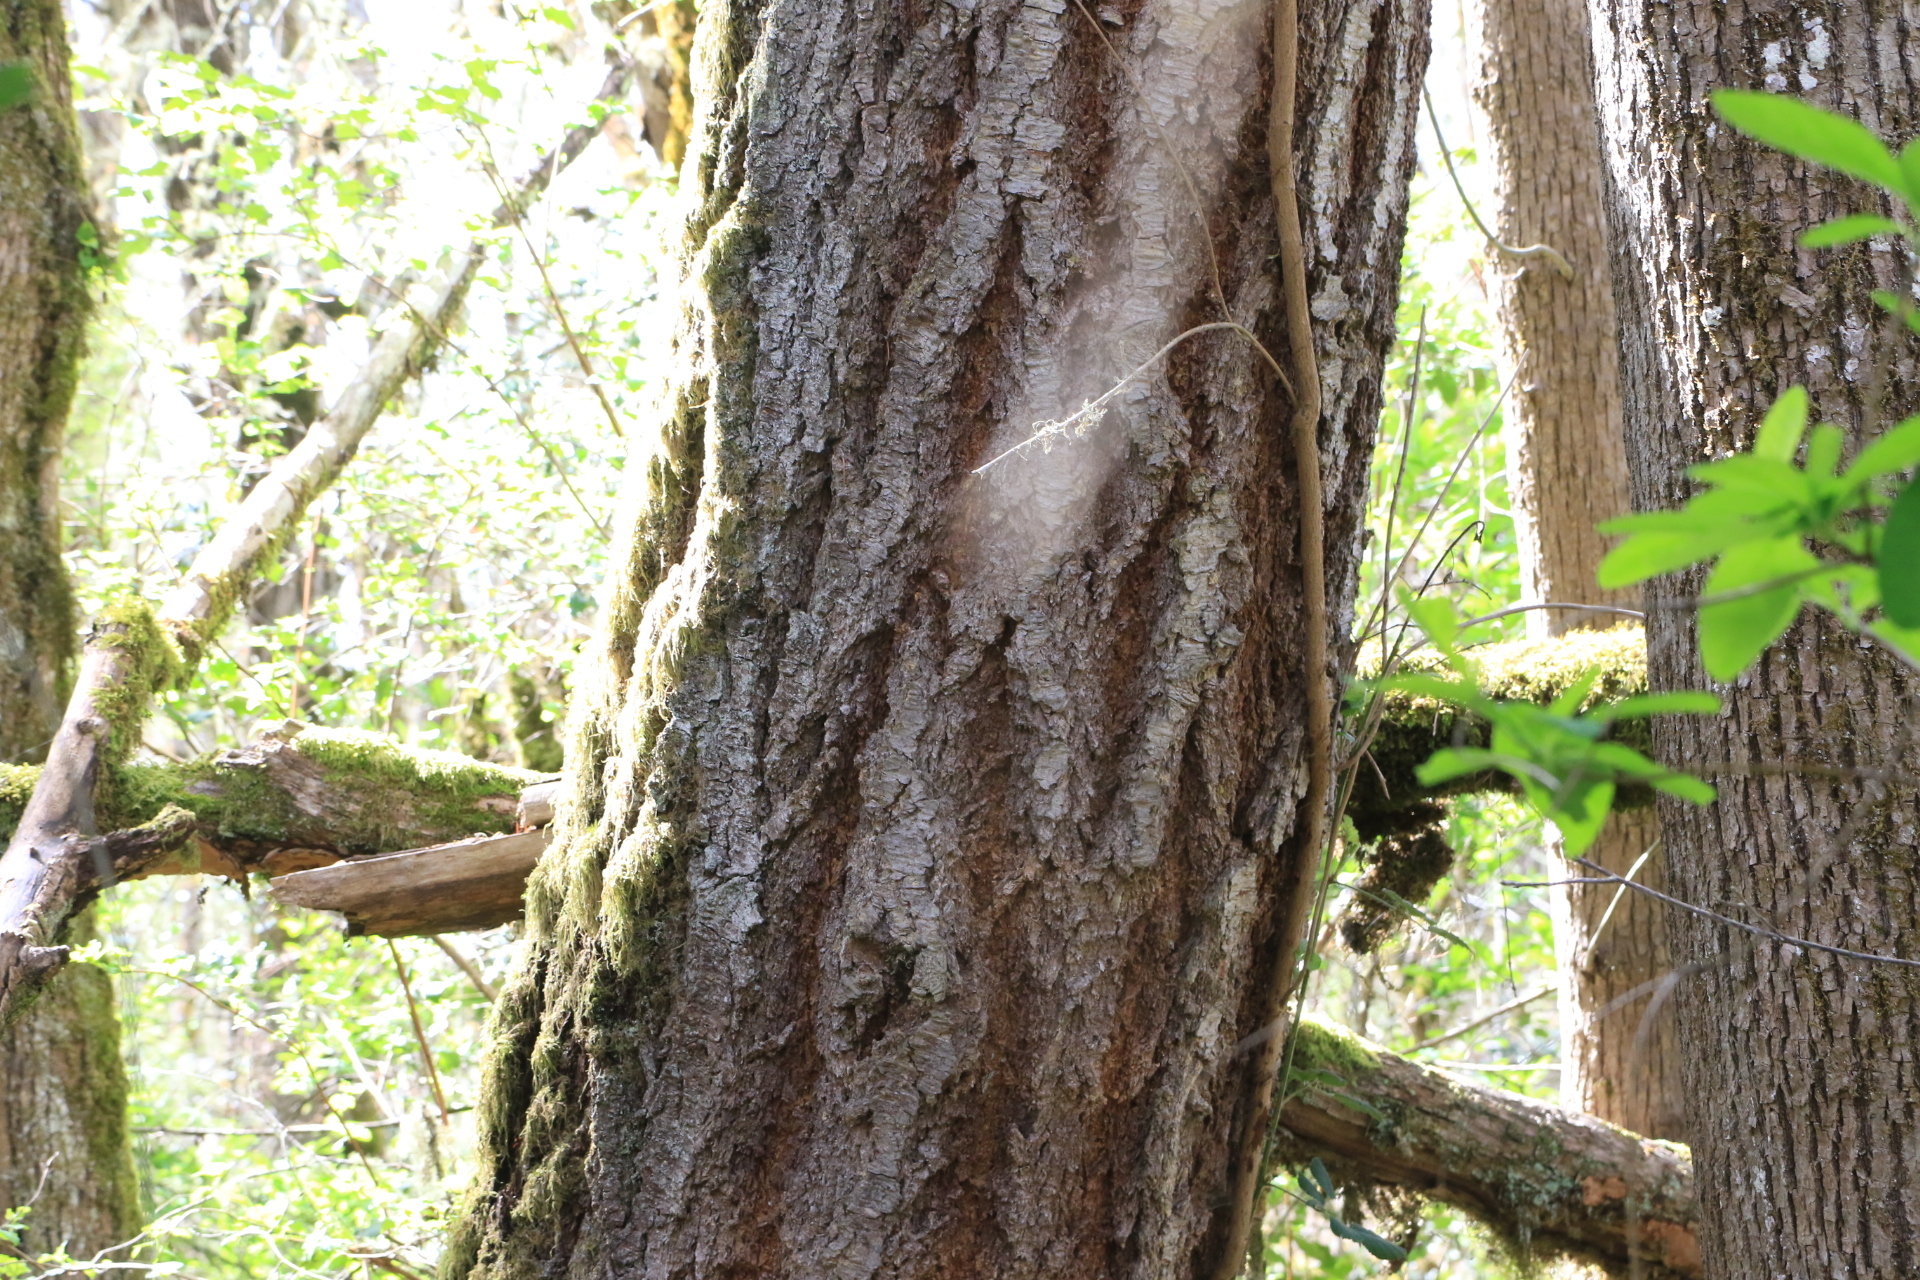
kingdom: Plantae
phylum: Tracheophyta
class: Pinopsida
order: Pinales
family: Pinaceae
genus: Pseudotsuga
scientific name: Pseudotsuga menziesii
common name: Douglas fir
